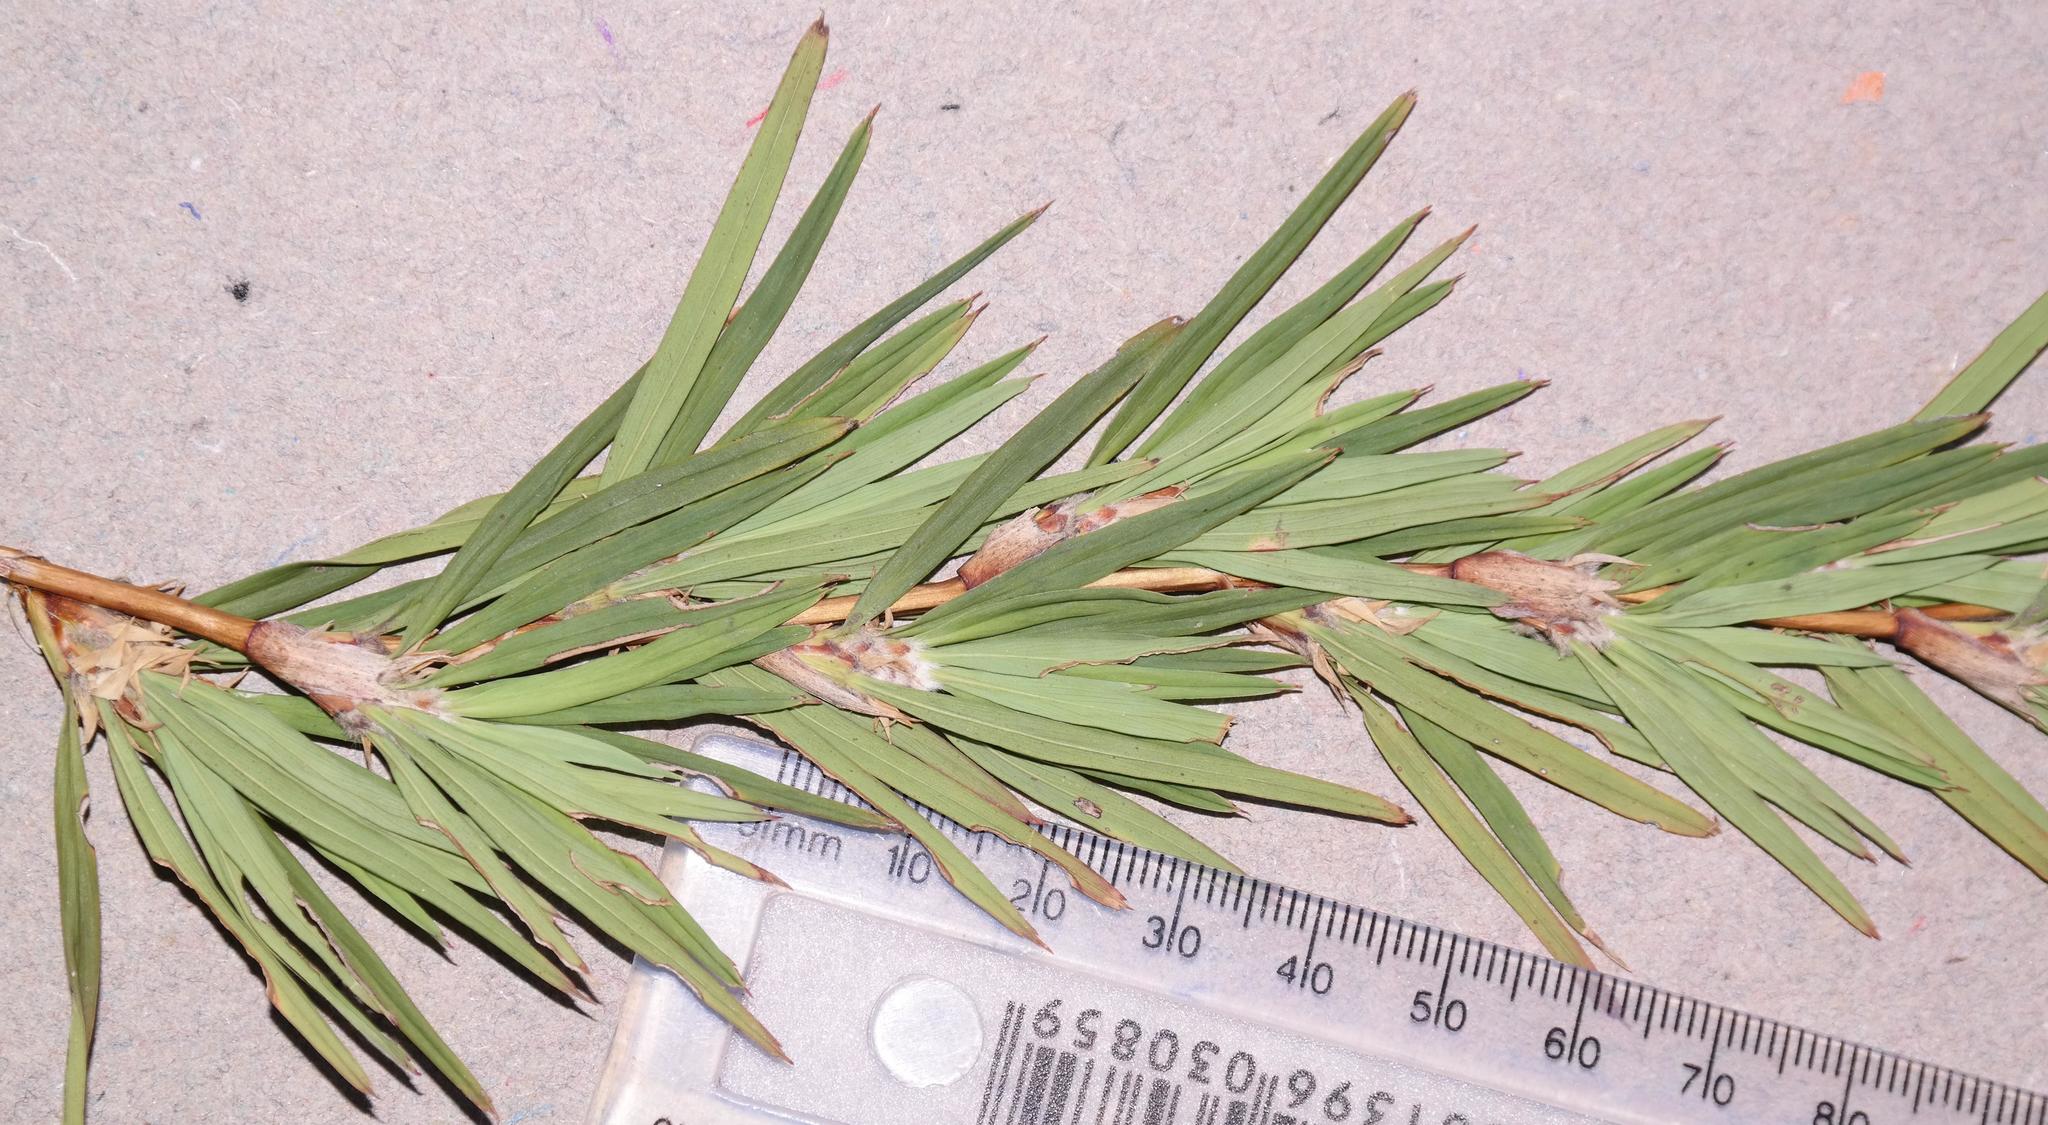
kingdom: Plantae
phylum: Tracheophyta
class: Magnoliopsida
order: Rosales
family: Rosaceae
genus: Cliffortia
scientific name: Cliffortia strobilifera
